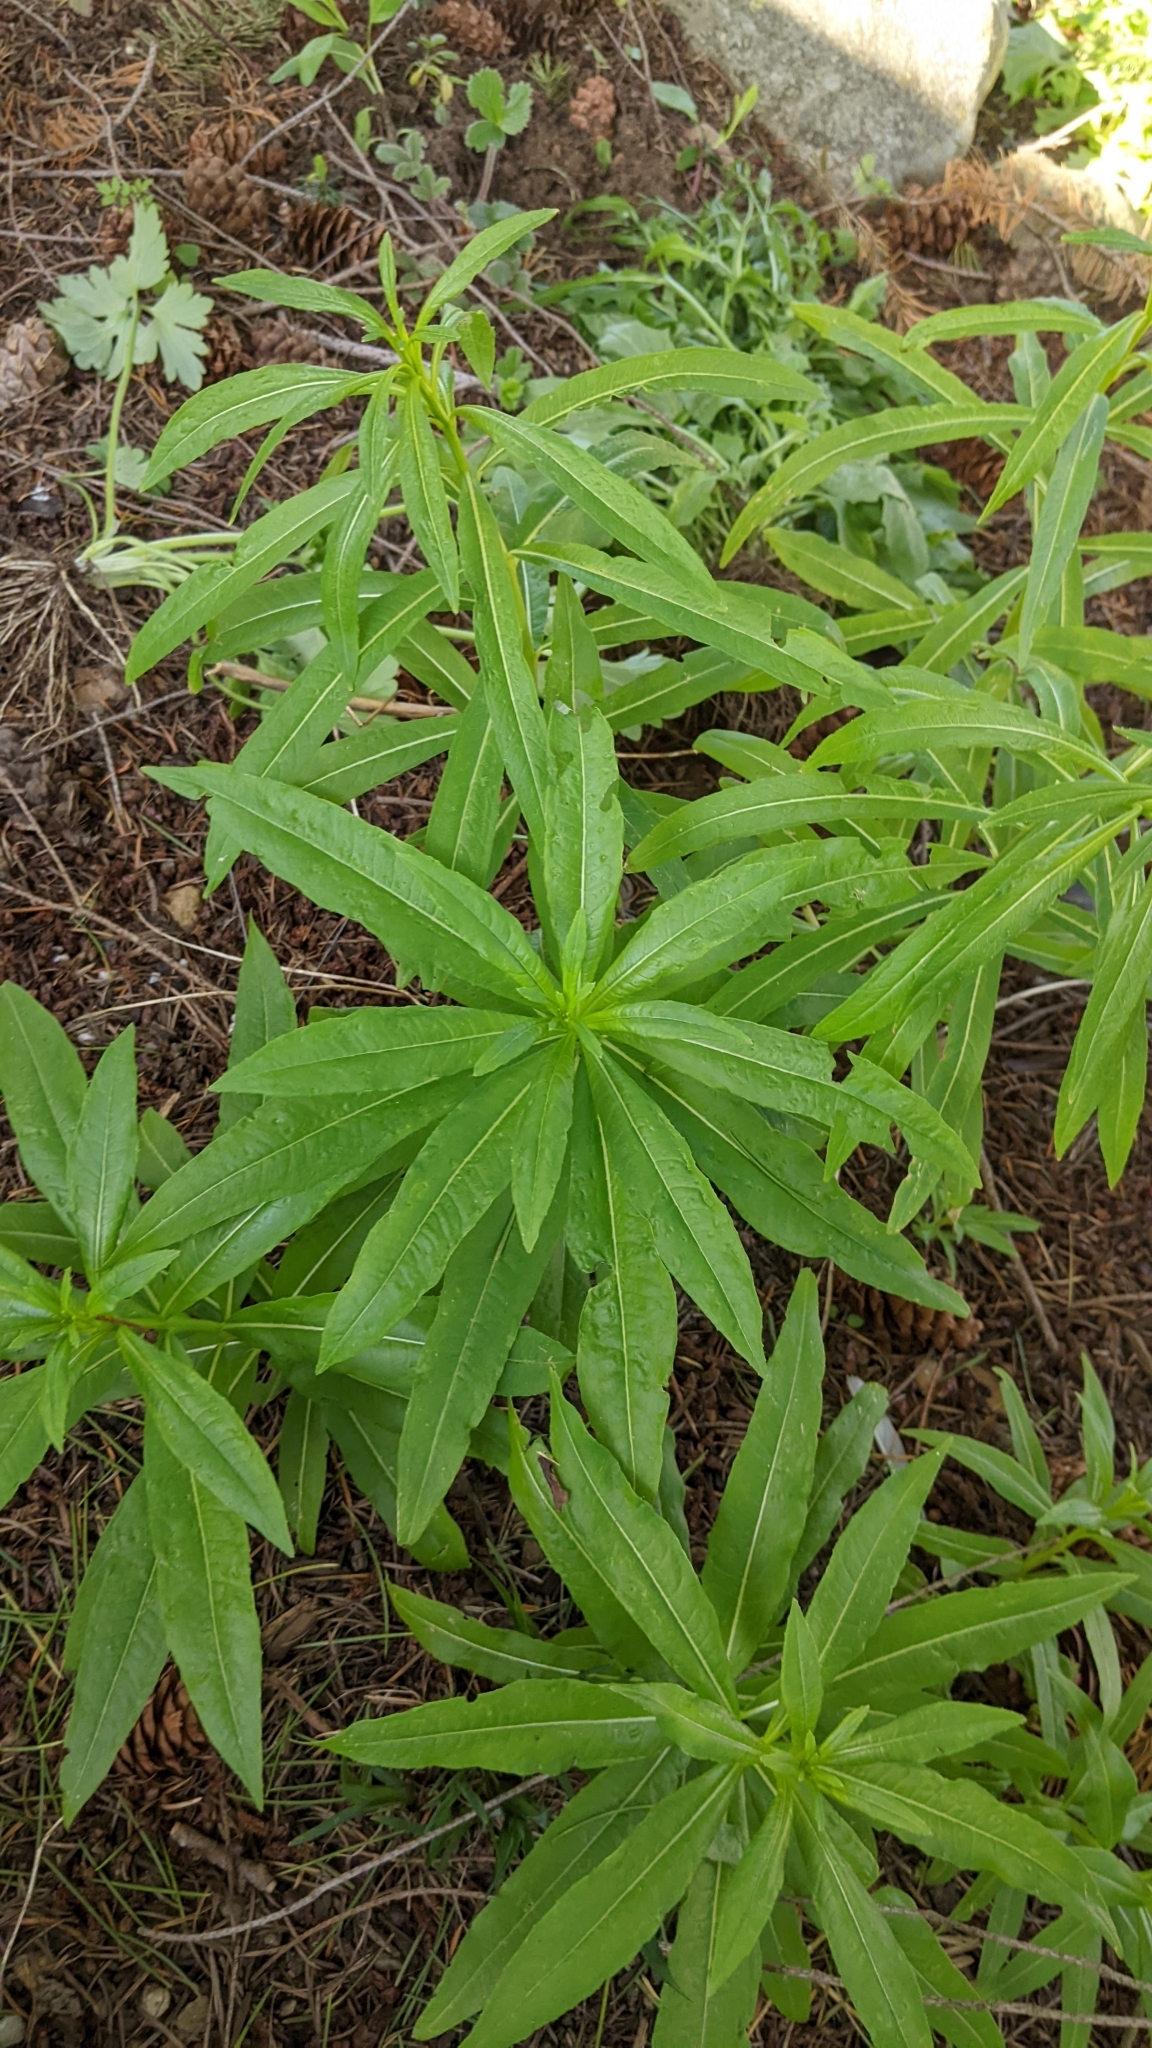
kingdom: Plantae
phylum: Tracheophyta
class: Magnoliopsida
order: Myrtales
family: Onagraceae
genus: Chamaenerion
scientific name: Chamaenerion angustifolium
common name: Fireweed
